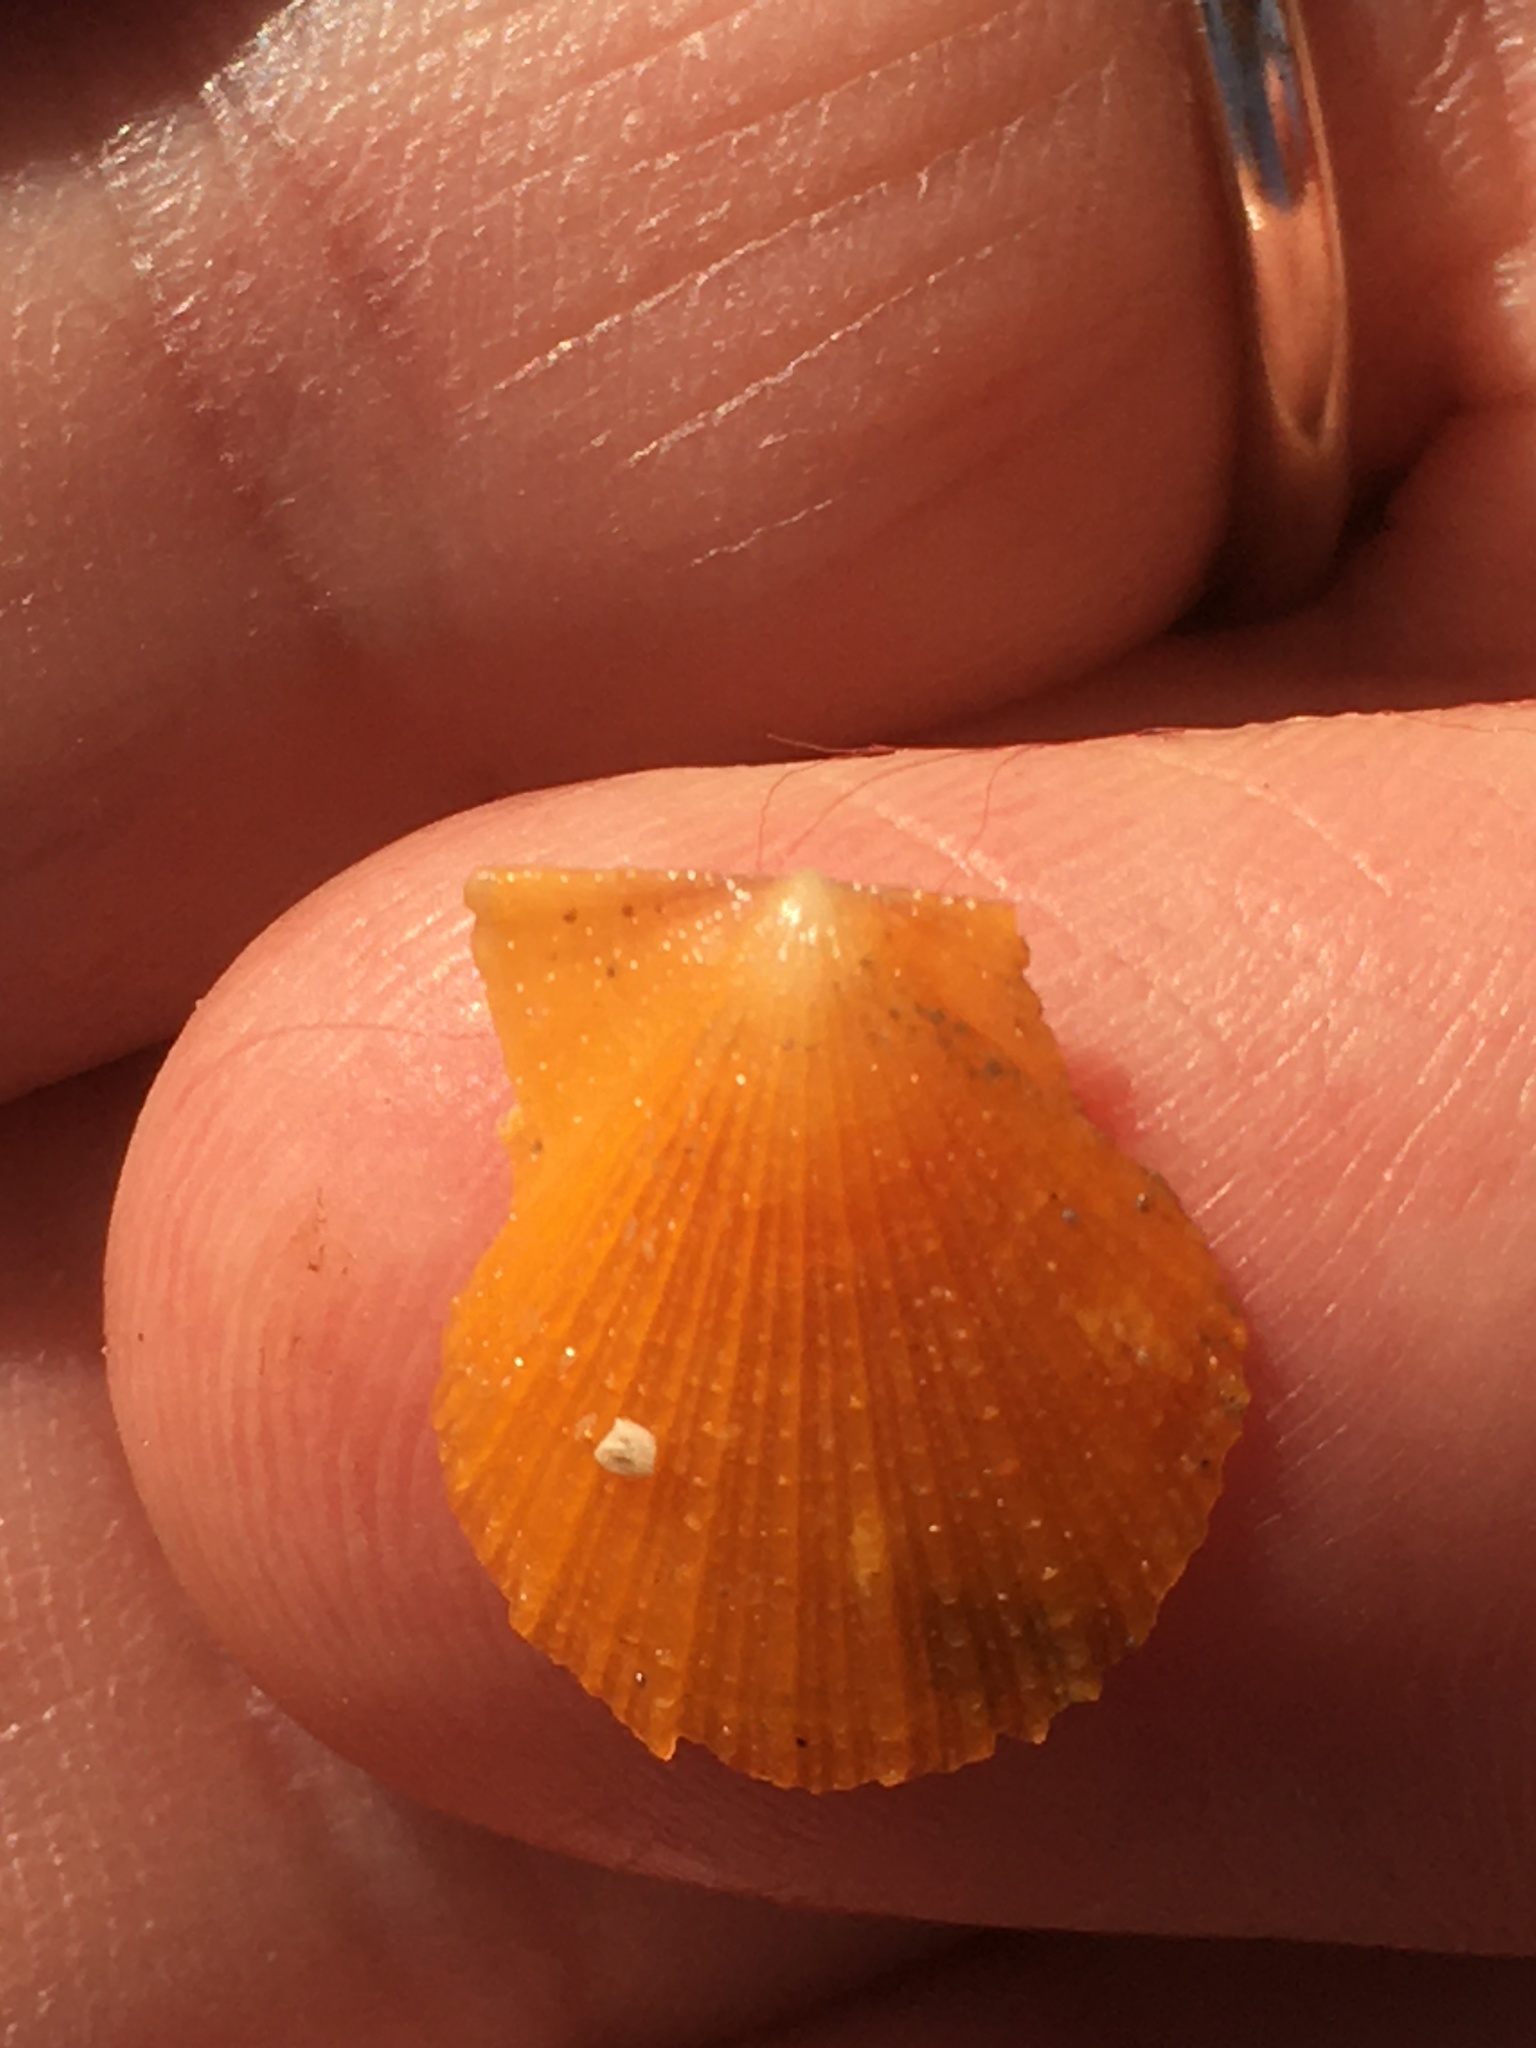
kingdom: Animalia
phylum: Mollusca
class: Bivalvia
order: Pectinida
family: Pectinidae
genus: Crassadoma
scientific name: Crassadoma gigantea
